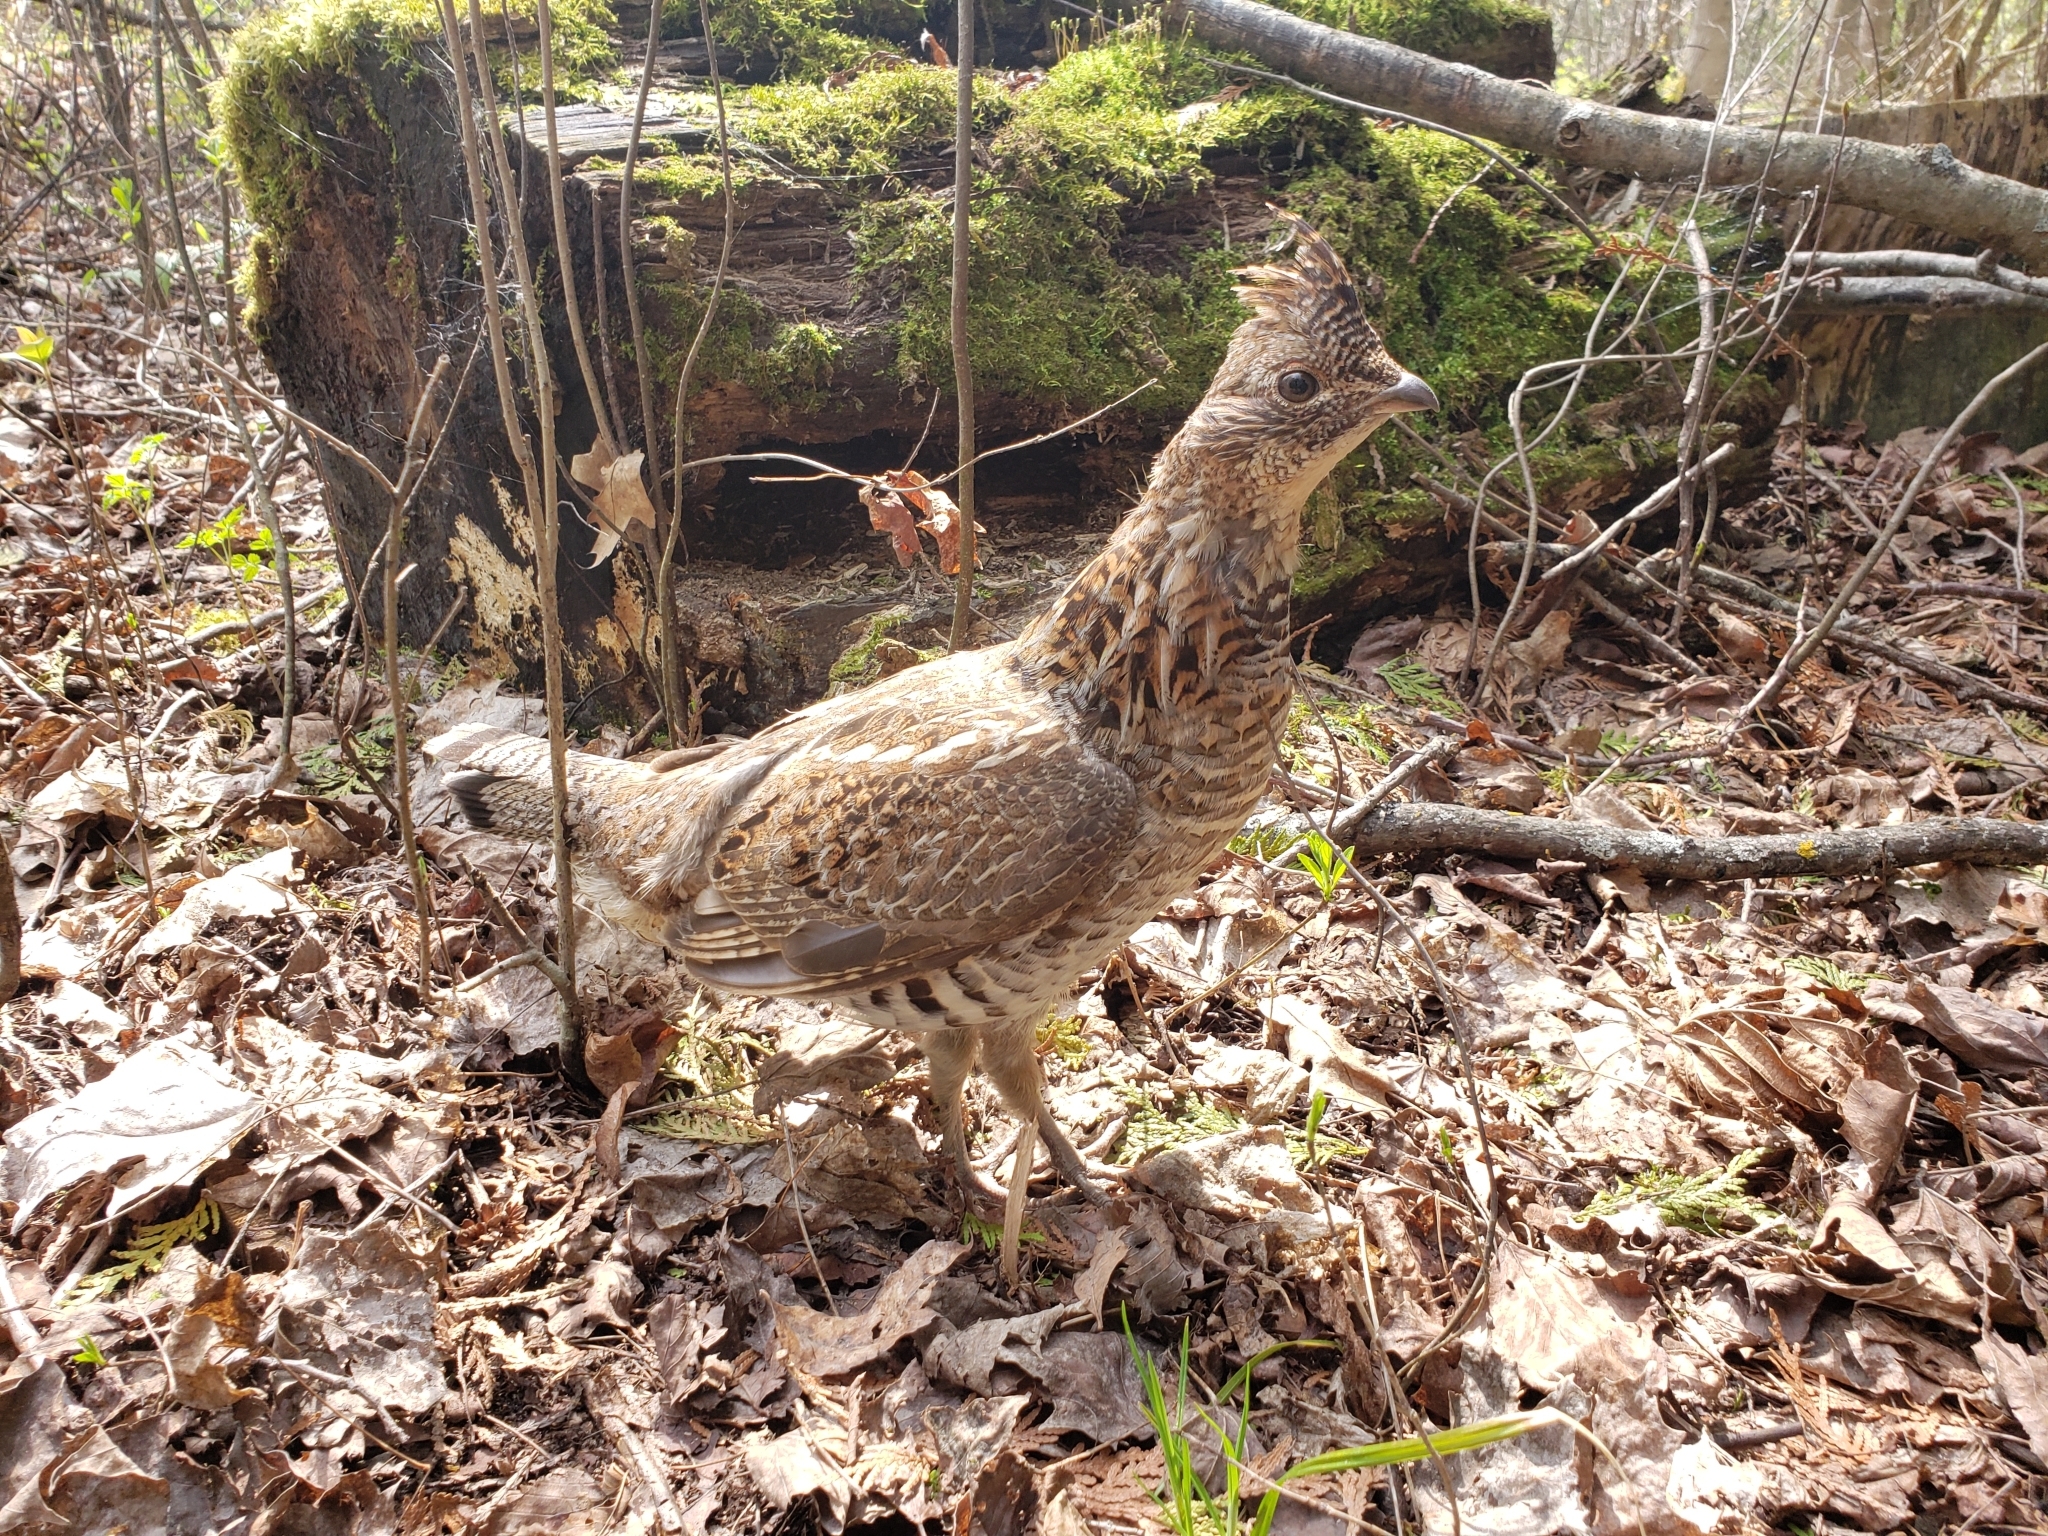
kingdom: Animalia
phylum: Chordata
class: Aves
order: Galliformes
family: Phasianidae
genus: Bonasa
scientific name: Bonasa umbellus
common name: Ruffed grouse
